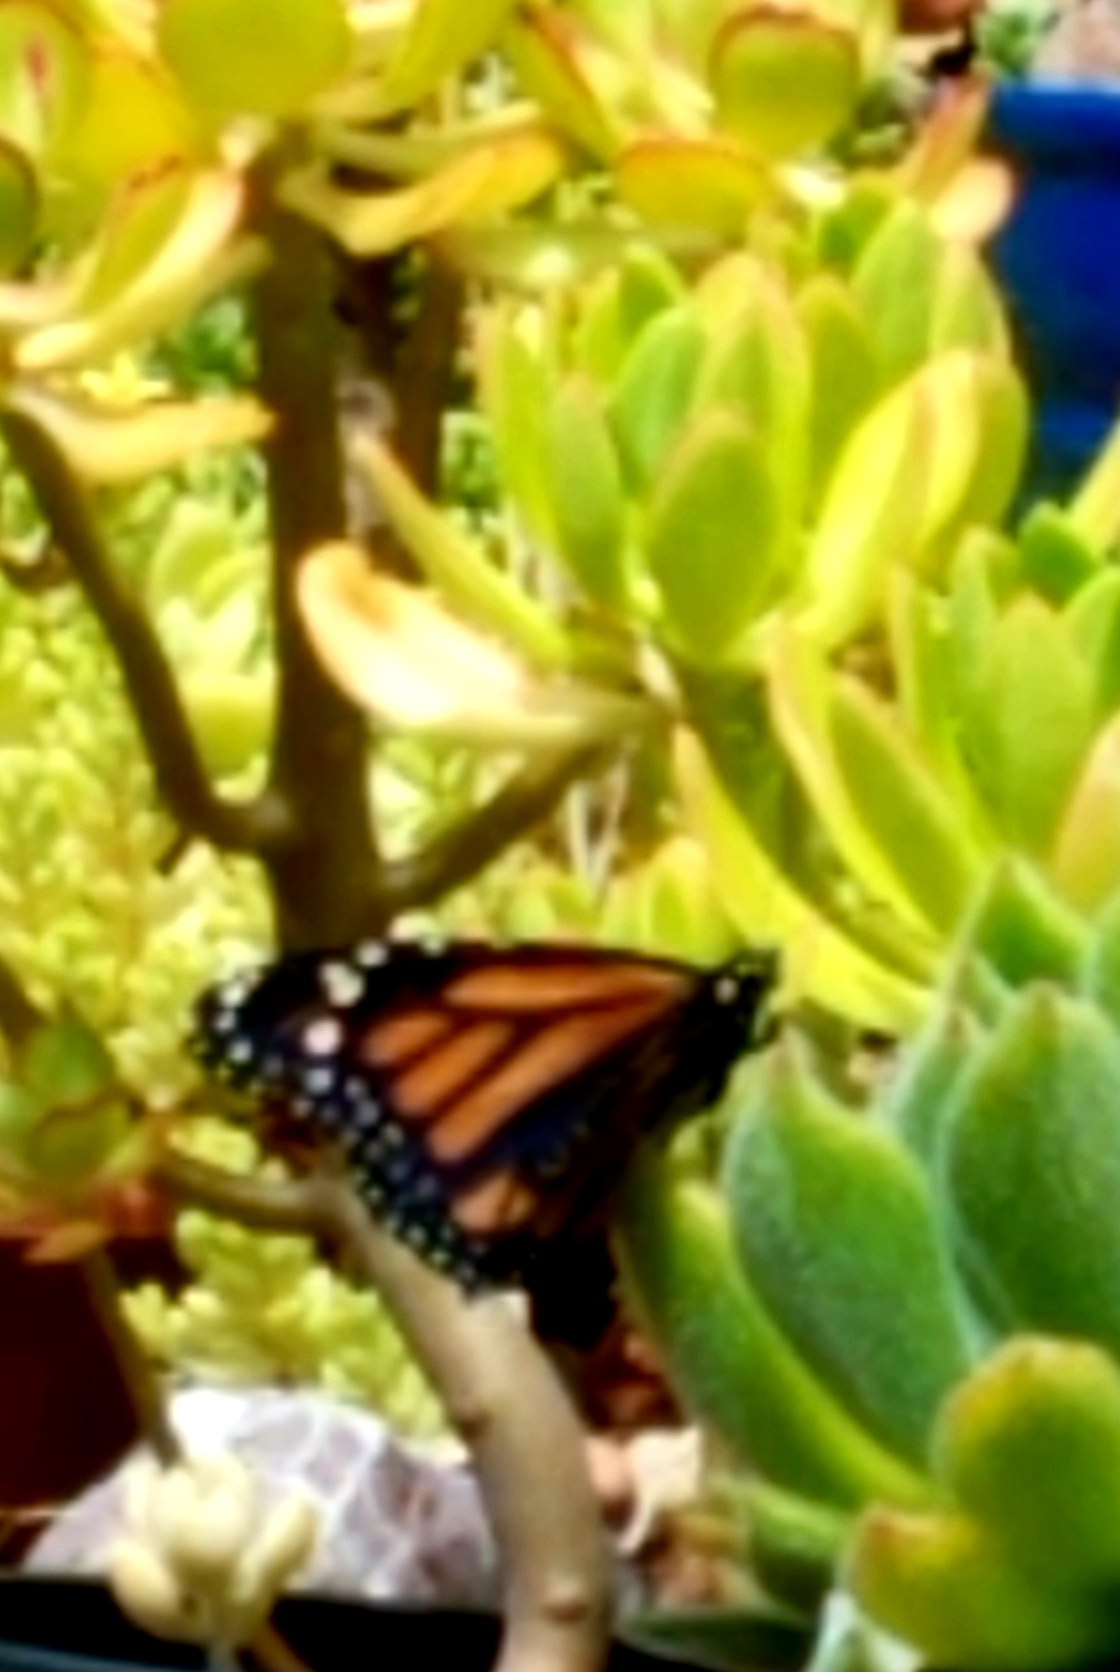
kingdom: Animalia
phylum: Arthropoda
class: Insecta
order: Lepidoptera
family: Nymphalidae
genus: Danaus
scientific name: Danaus plexippus
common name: Monarch
